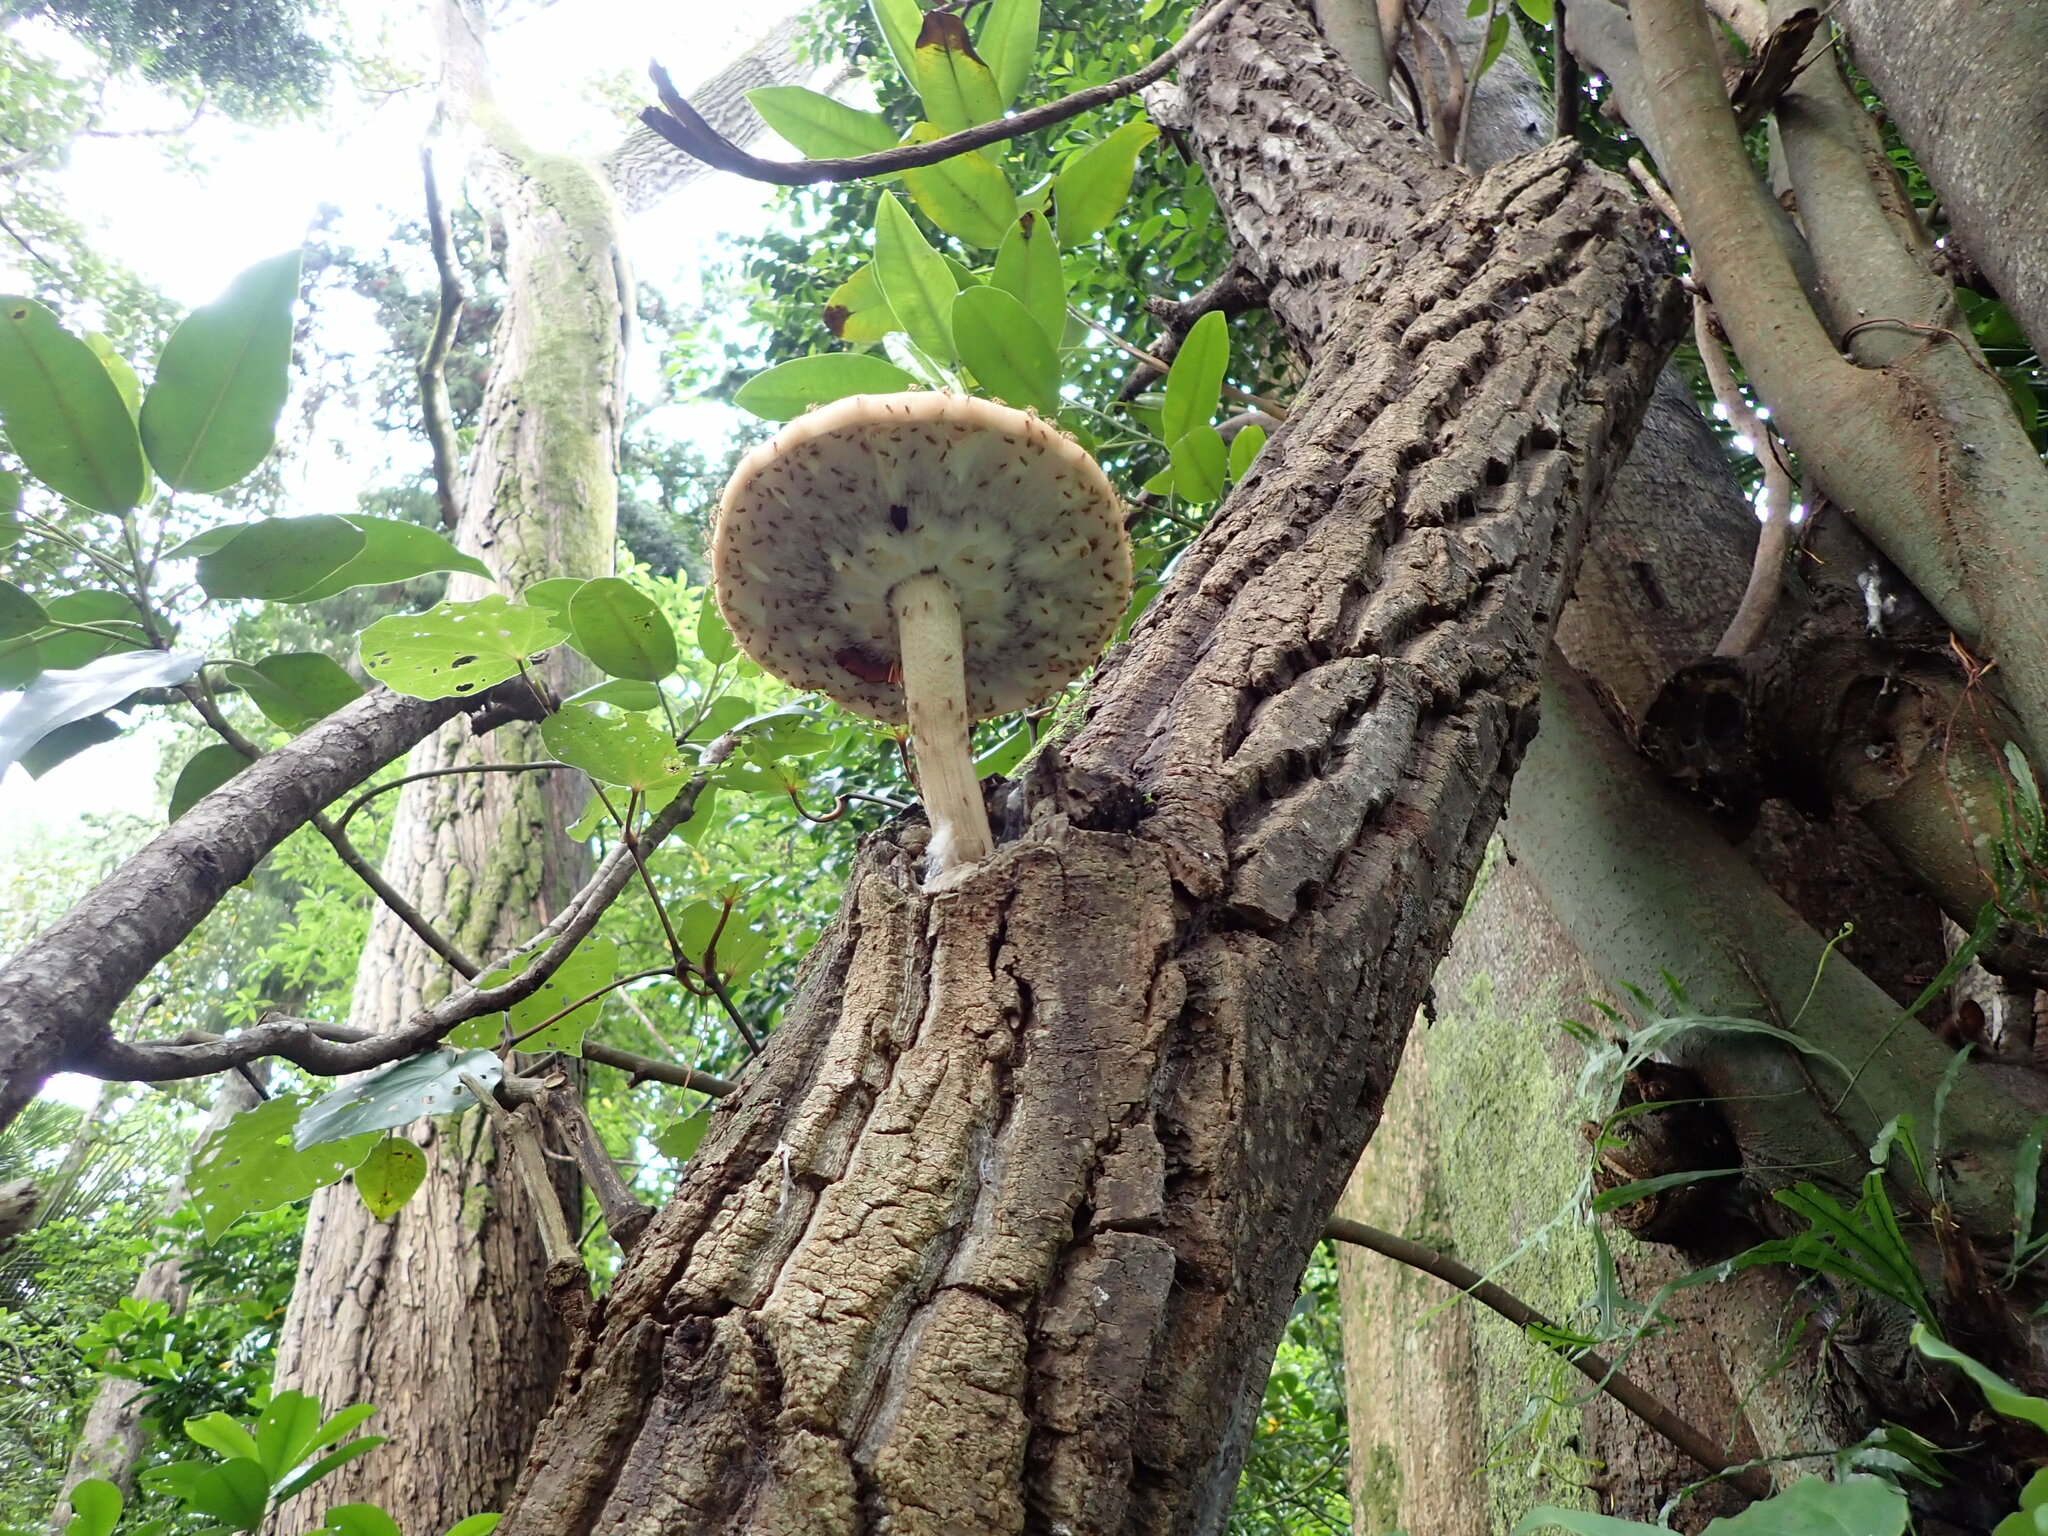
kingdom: Fungi
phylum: Basidiomycota
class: Agaricomycetes
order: Agaricales
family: Tubariaceae
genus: Cyclocybe
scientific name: Cyclocybe parasitica
